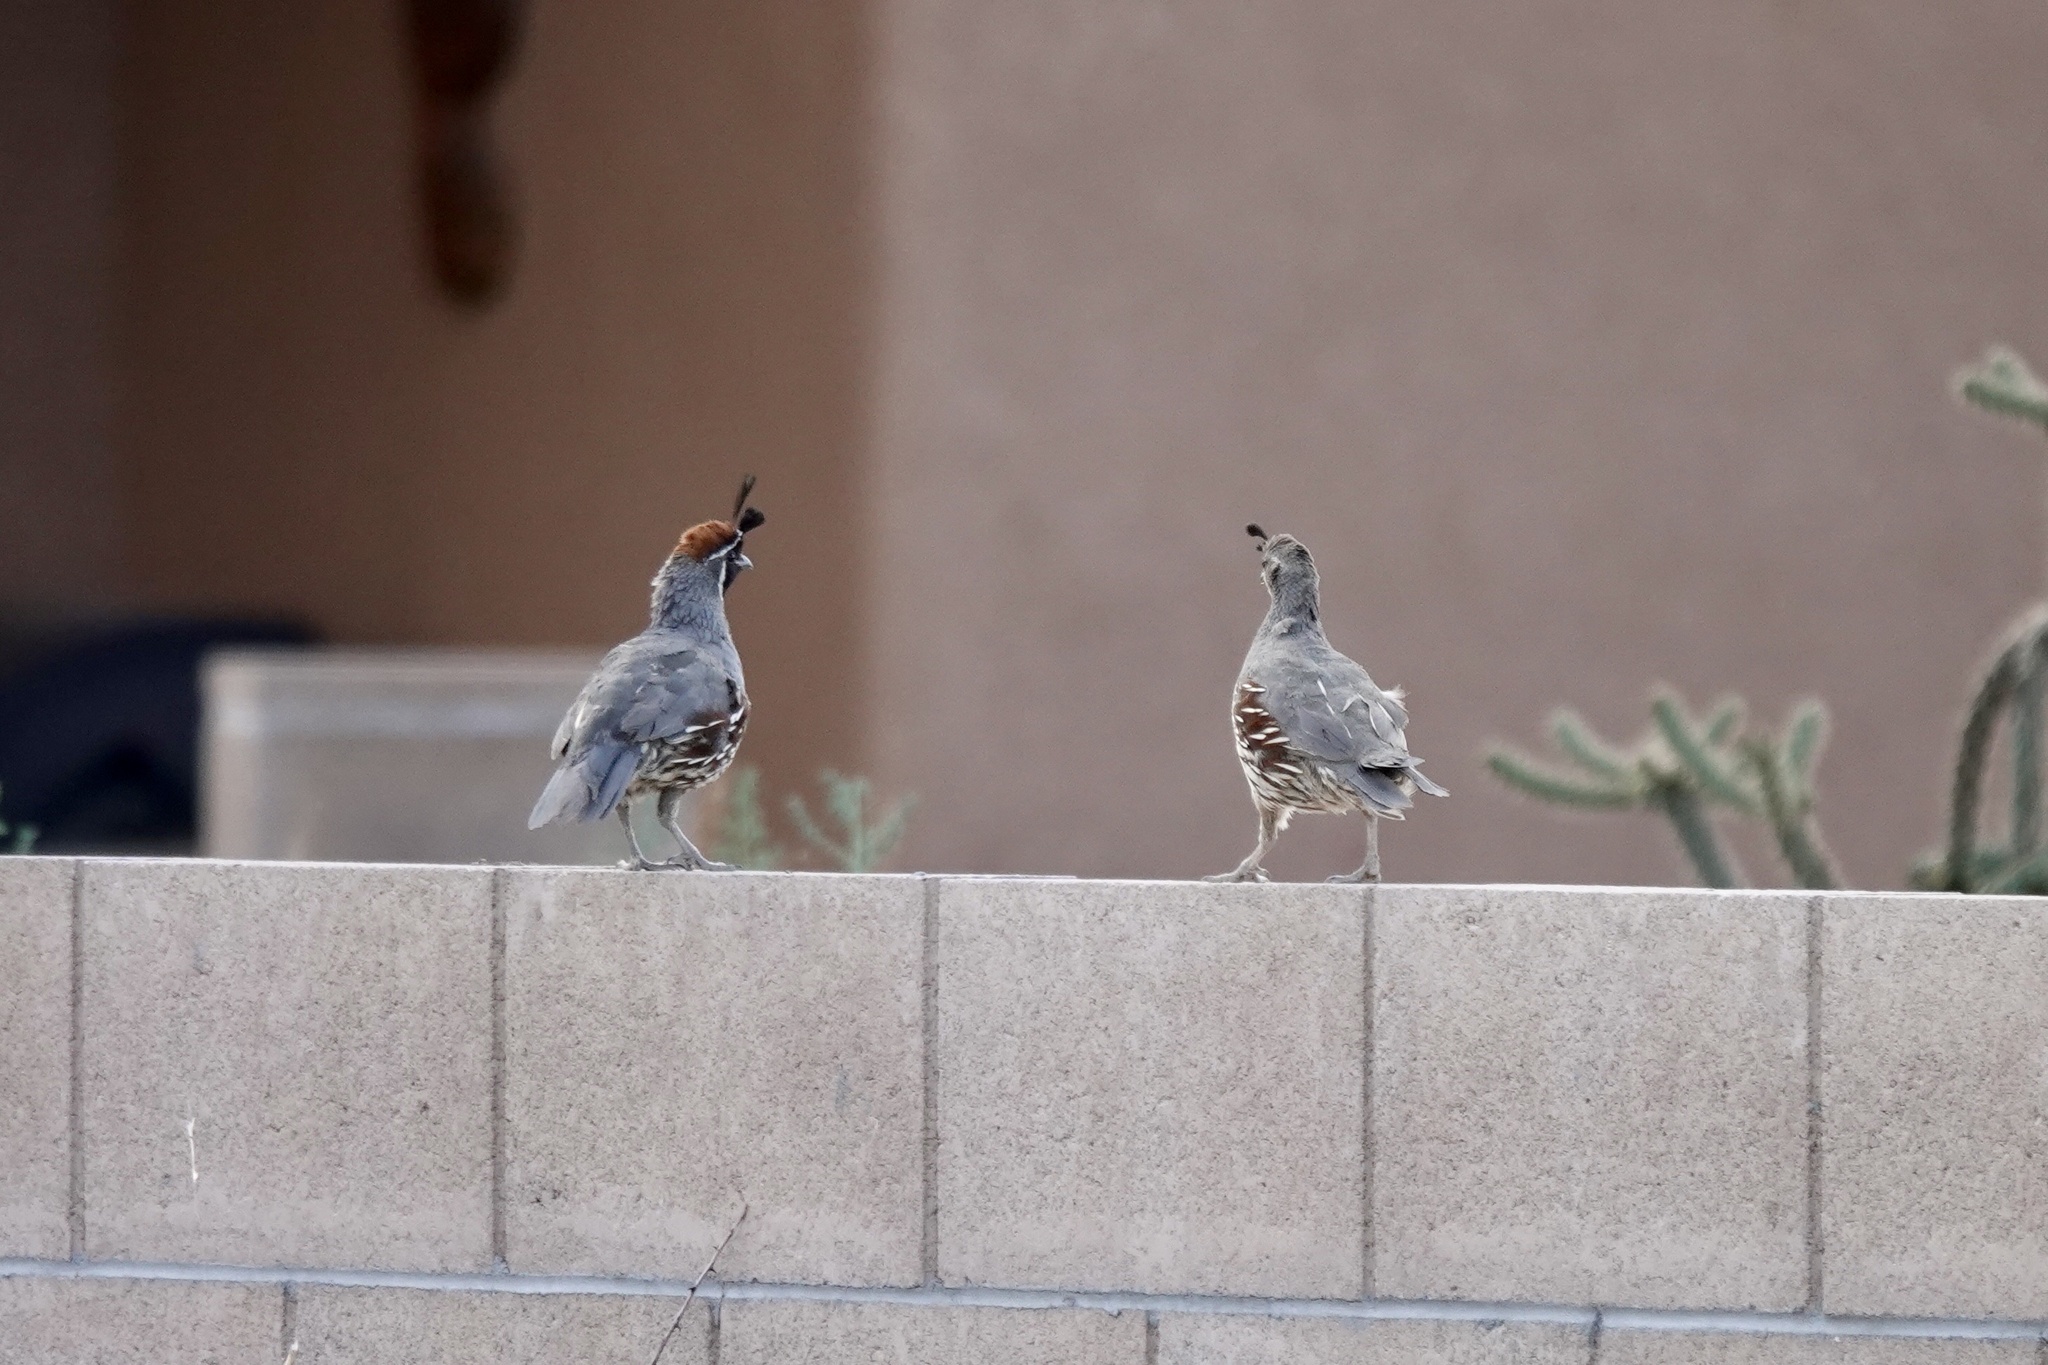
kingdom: Animalia
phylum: Chordata
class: Aves
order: Galliformes
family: Odontophoridae
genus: Callipepla
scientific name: Callipepla gambelii
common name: Gambel's quail
